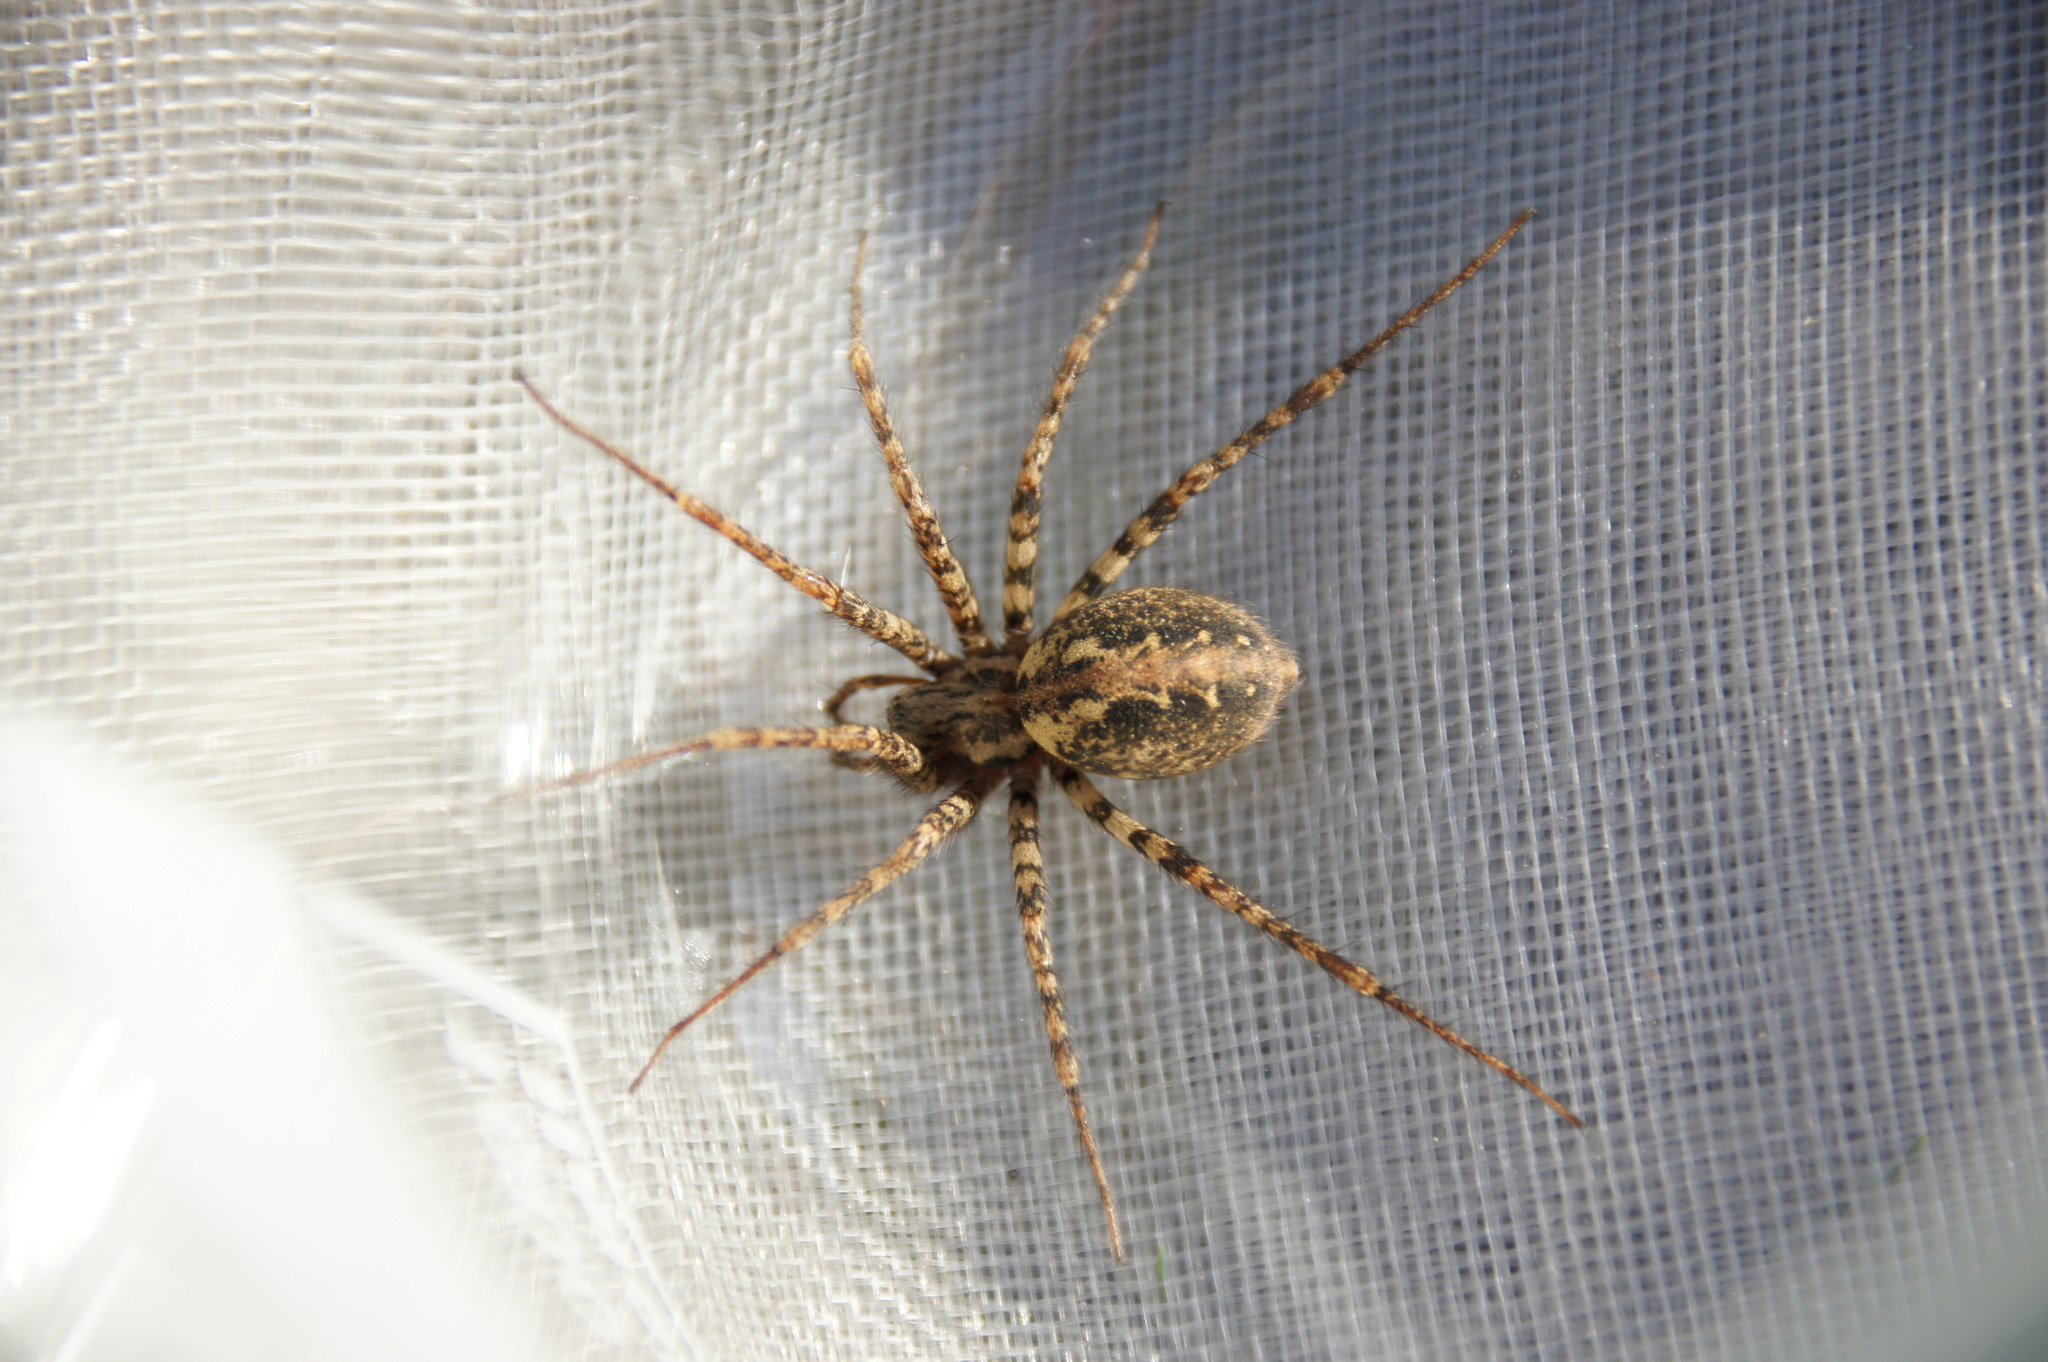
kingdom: Animalia
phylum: Arthropoda
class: Arachnida
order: Araneae
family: Agelenidae
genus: Tegenaria
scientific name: Tegenaria ferruginea
